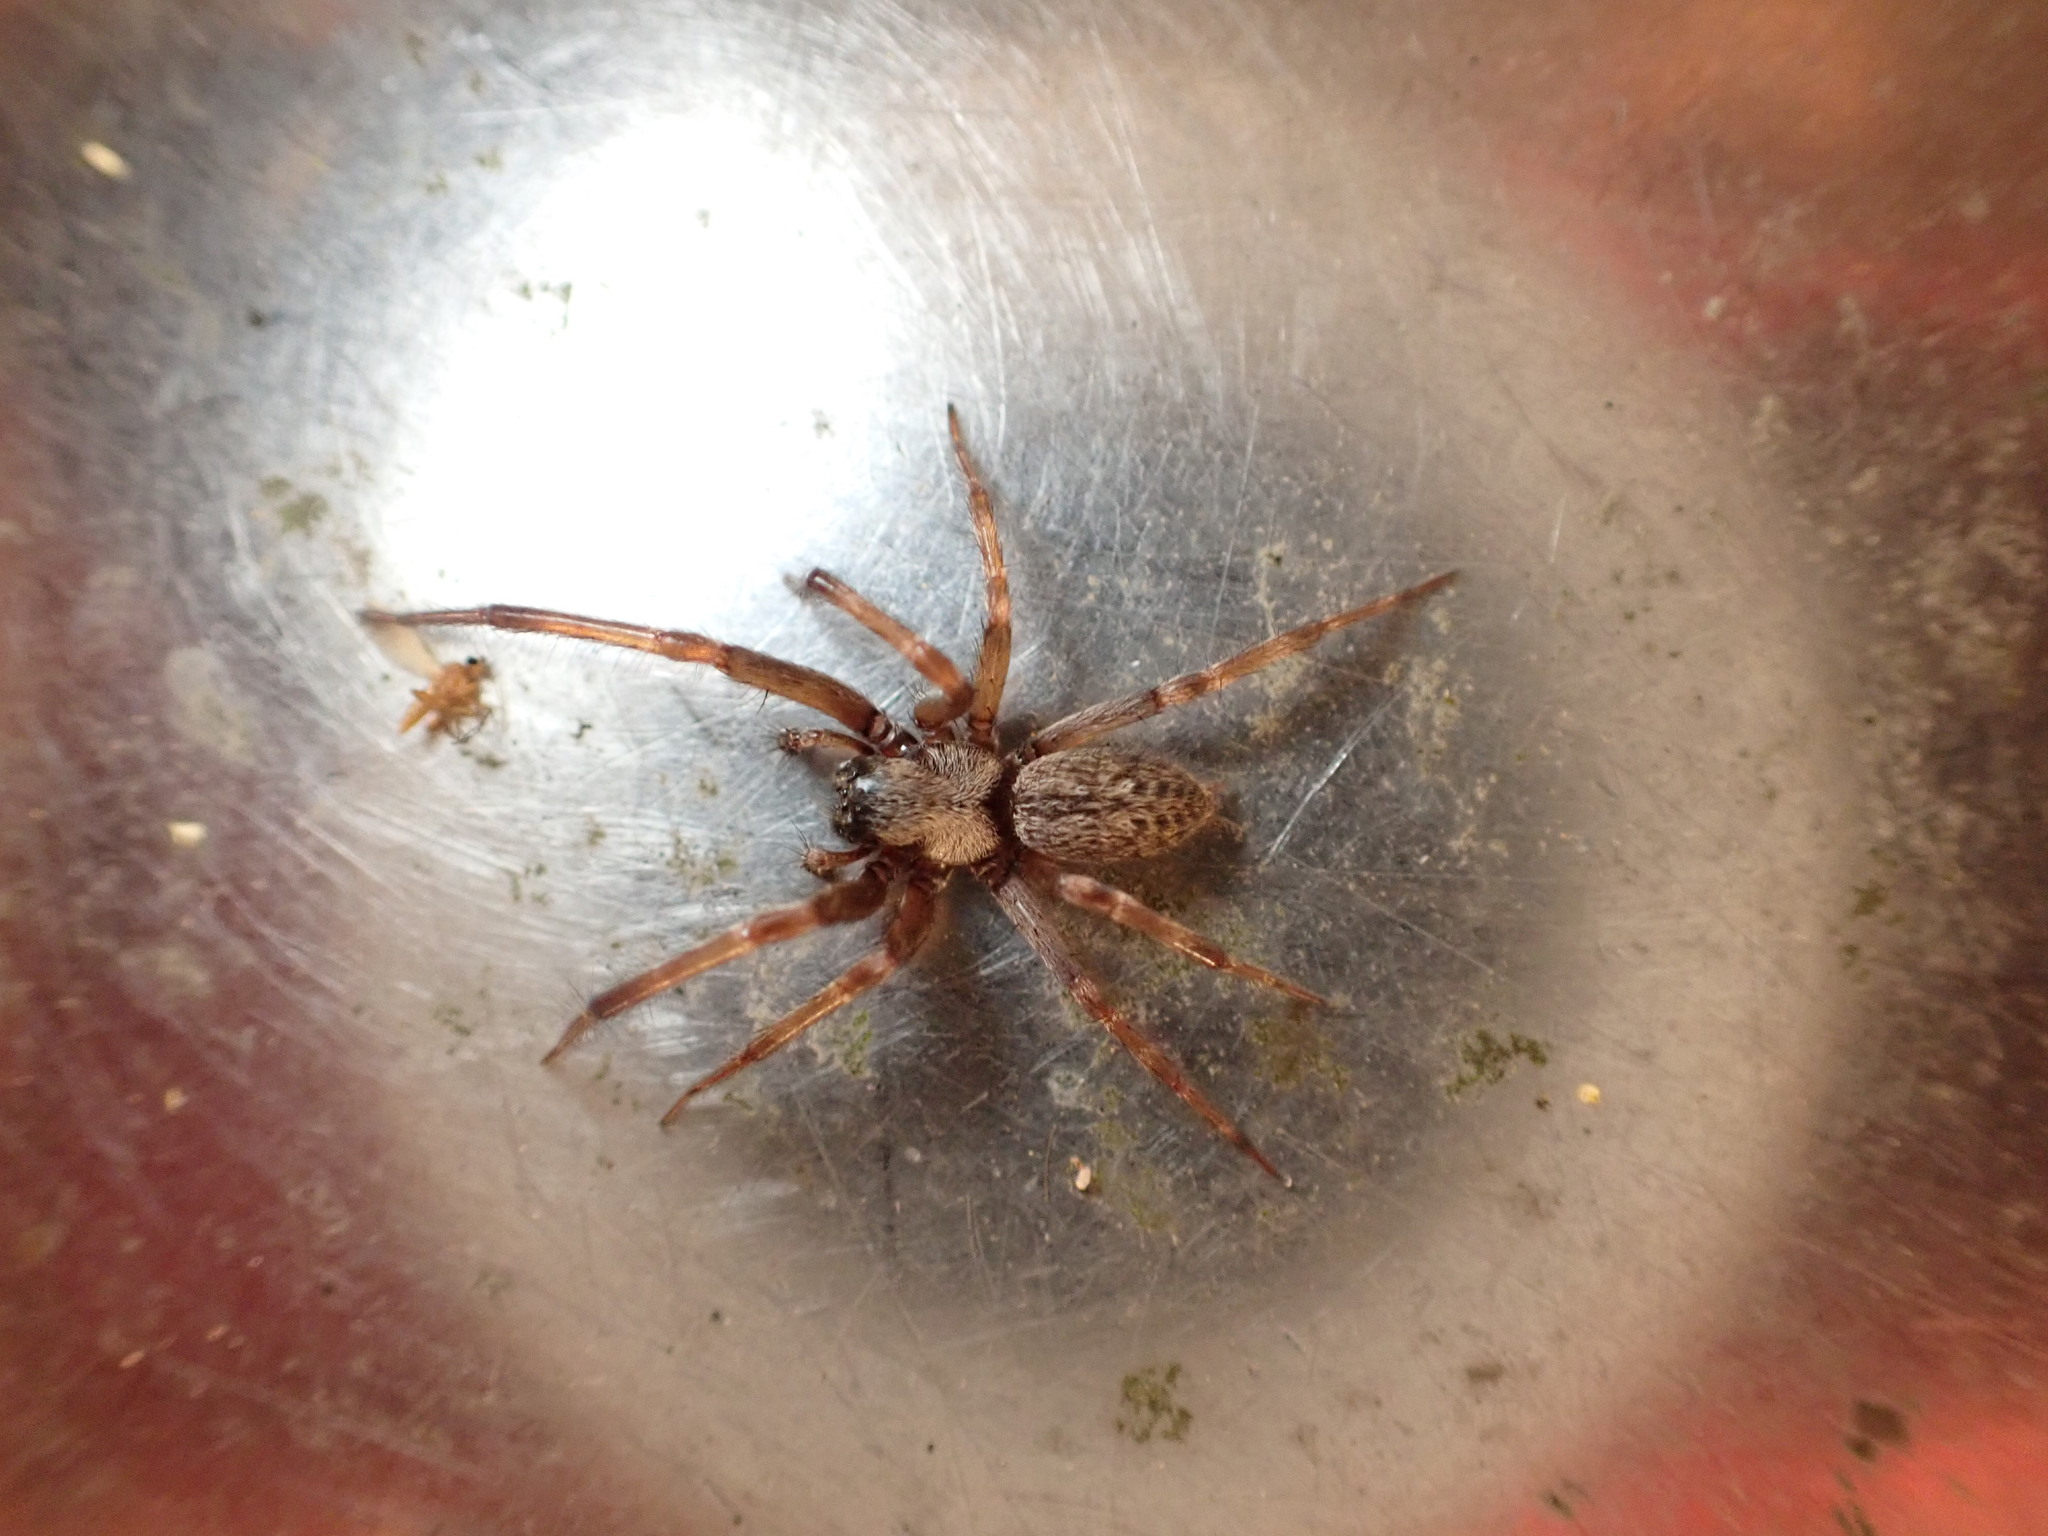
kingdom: Animalia
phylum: Arthropoda
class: Arachnida
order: Araneae
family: Desidae
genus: Badumna
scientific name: Badumna longinqua
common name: Gray house spider
